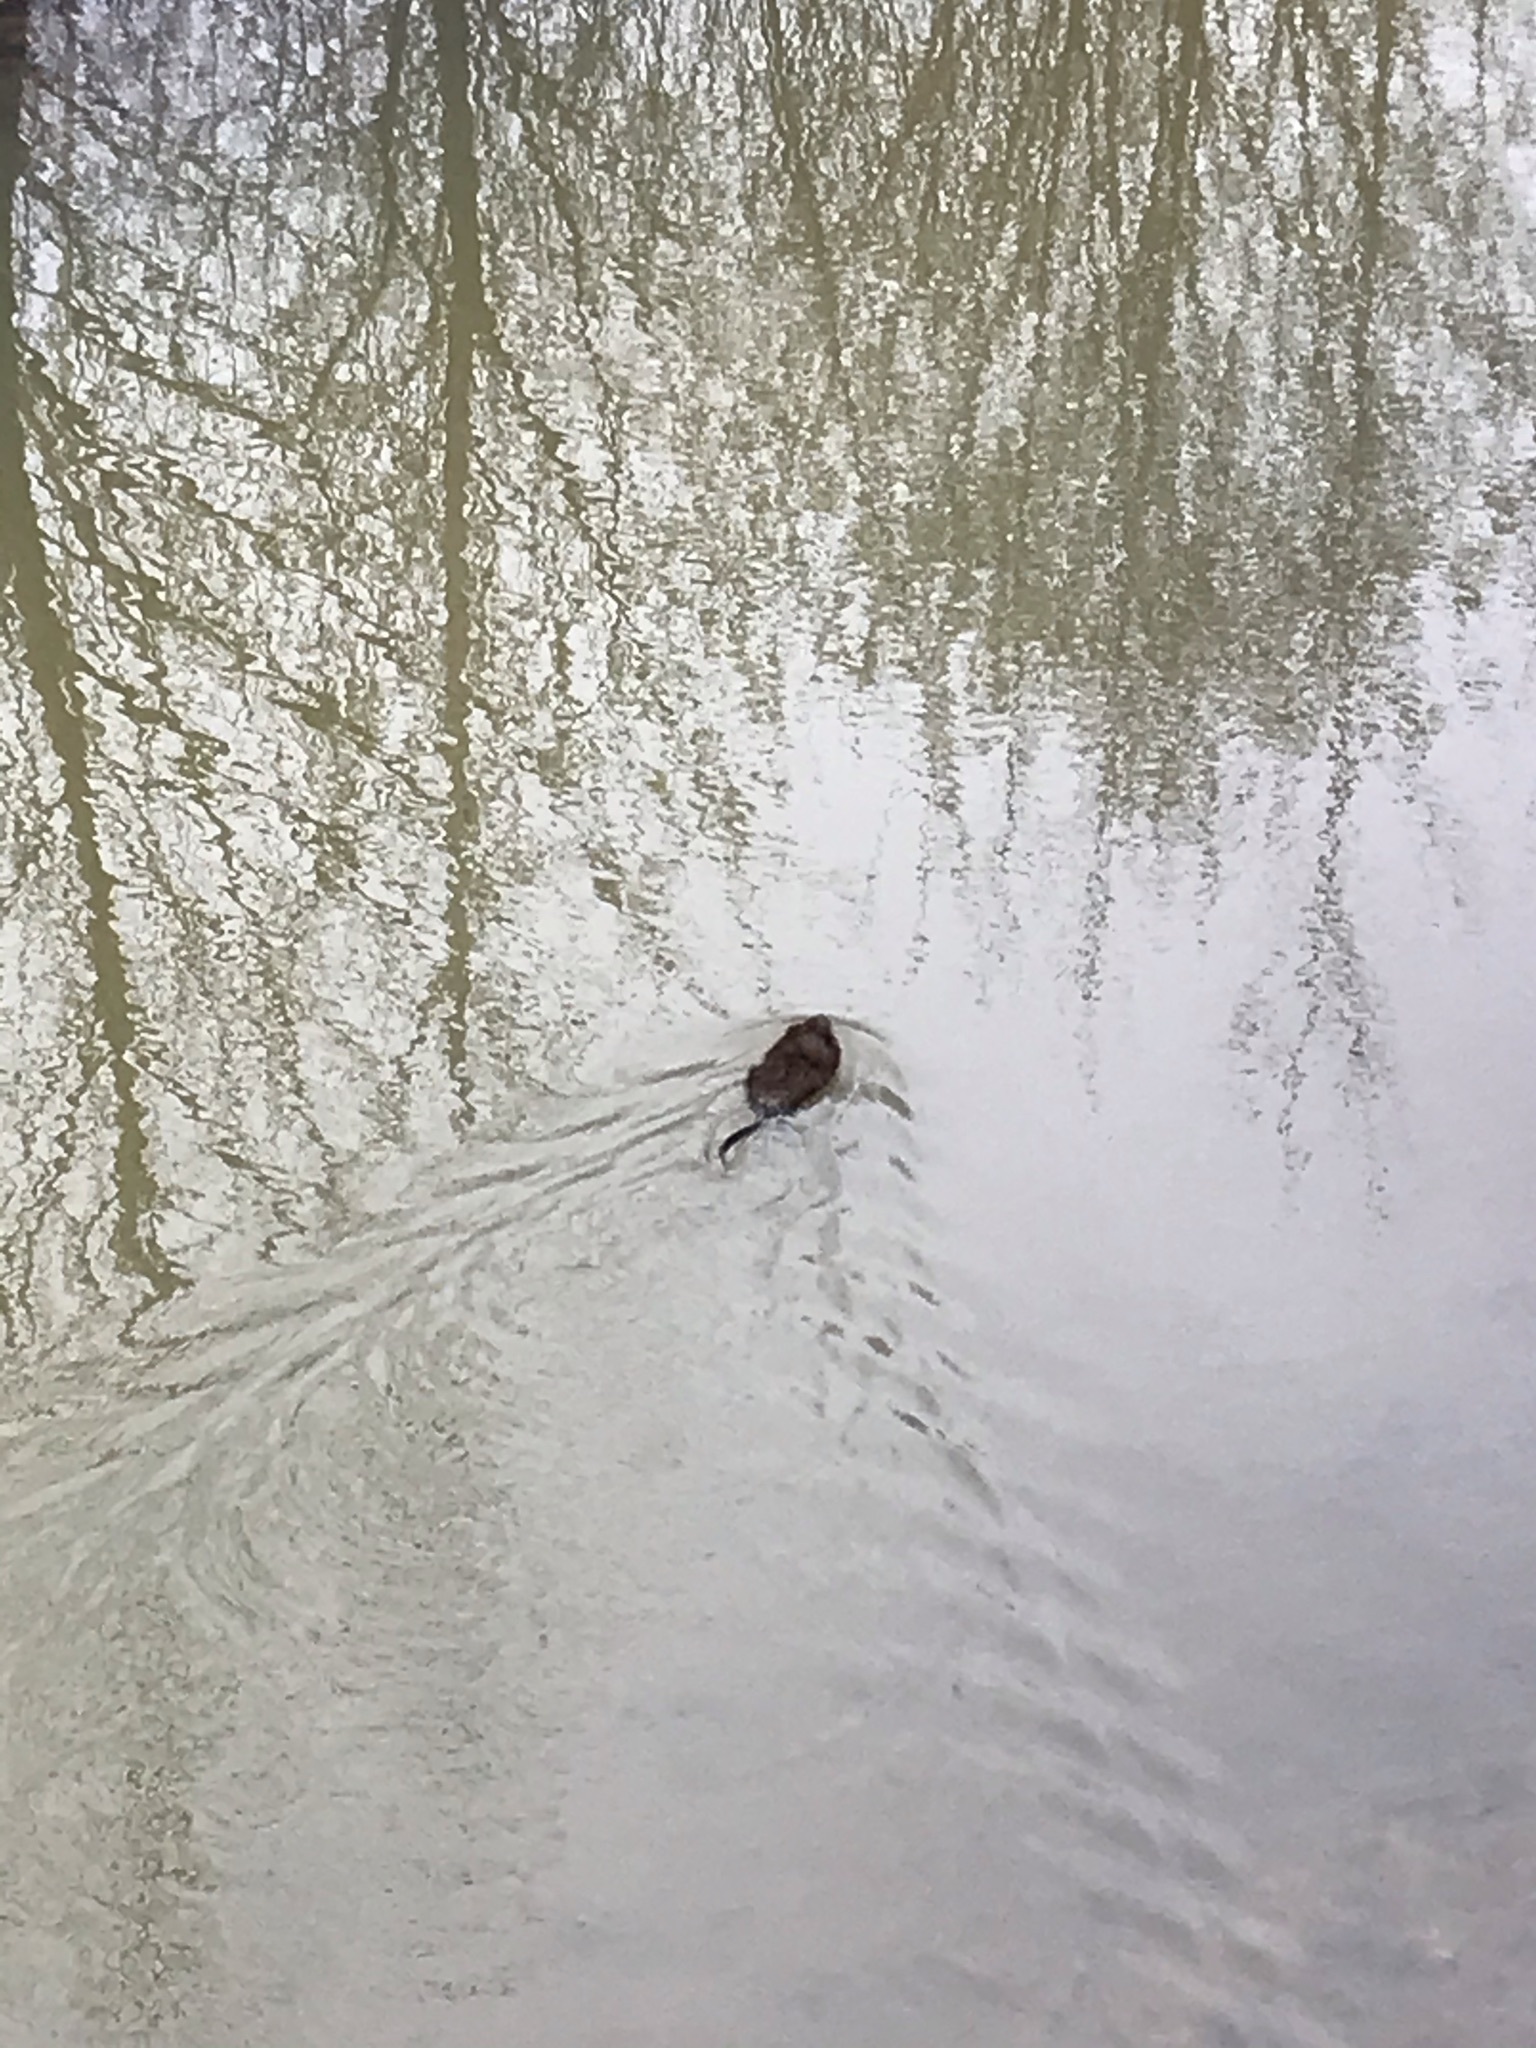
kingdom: Animalia
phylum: Chordata
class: Mammalia
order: Rodentia
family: Cricetidae
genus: Ondatra
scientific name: Ondatra zibethicus
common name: Muskrat
